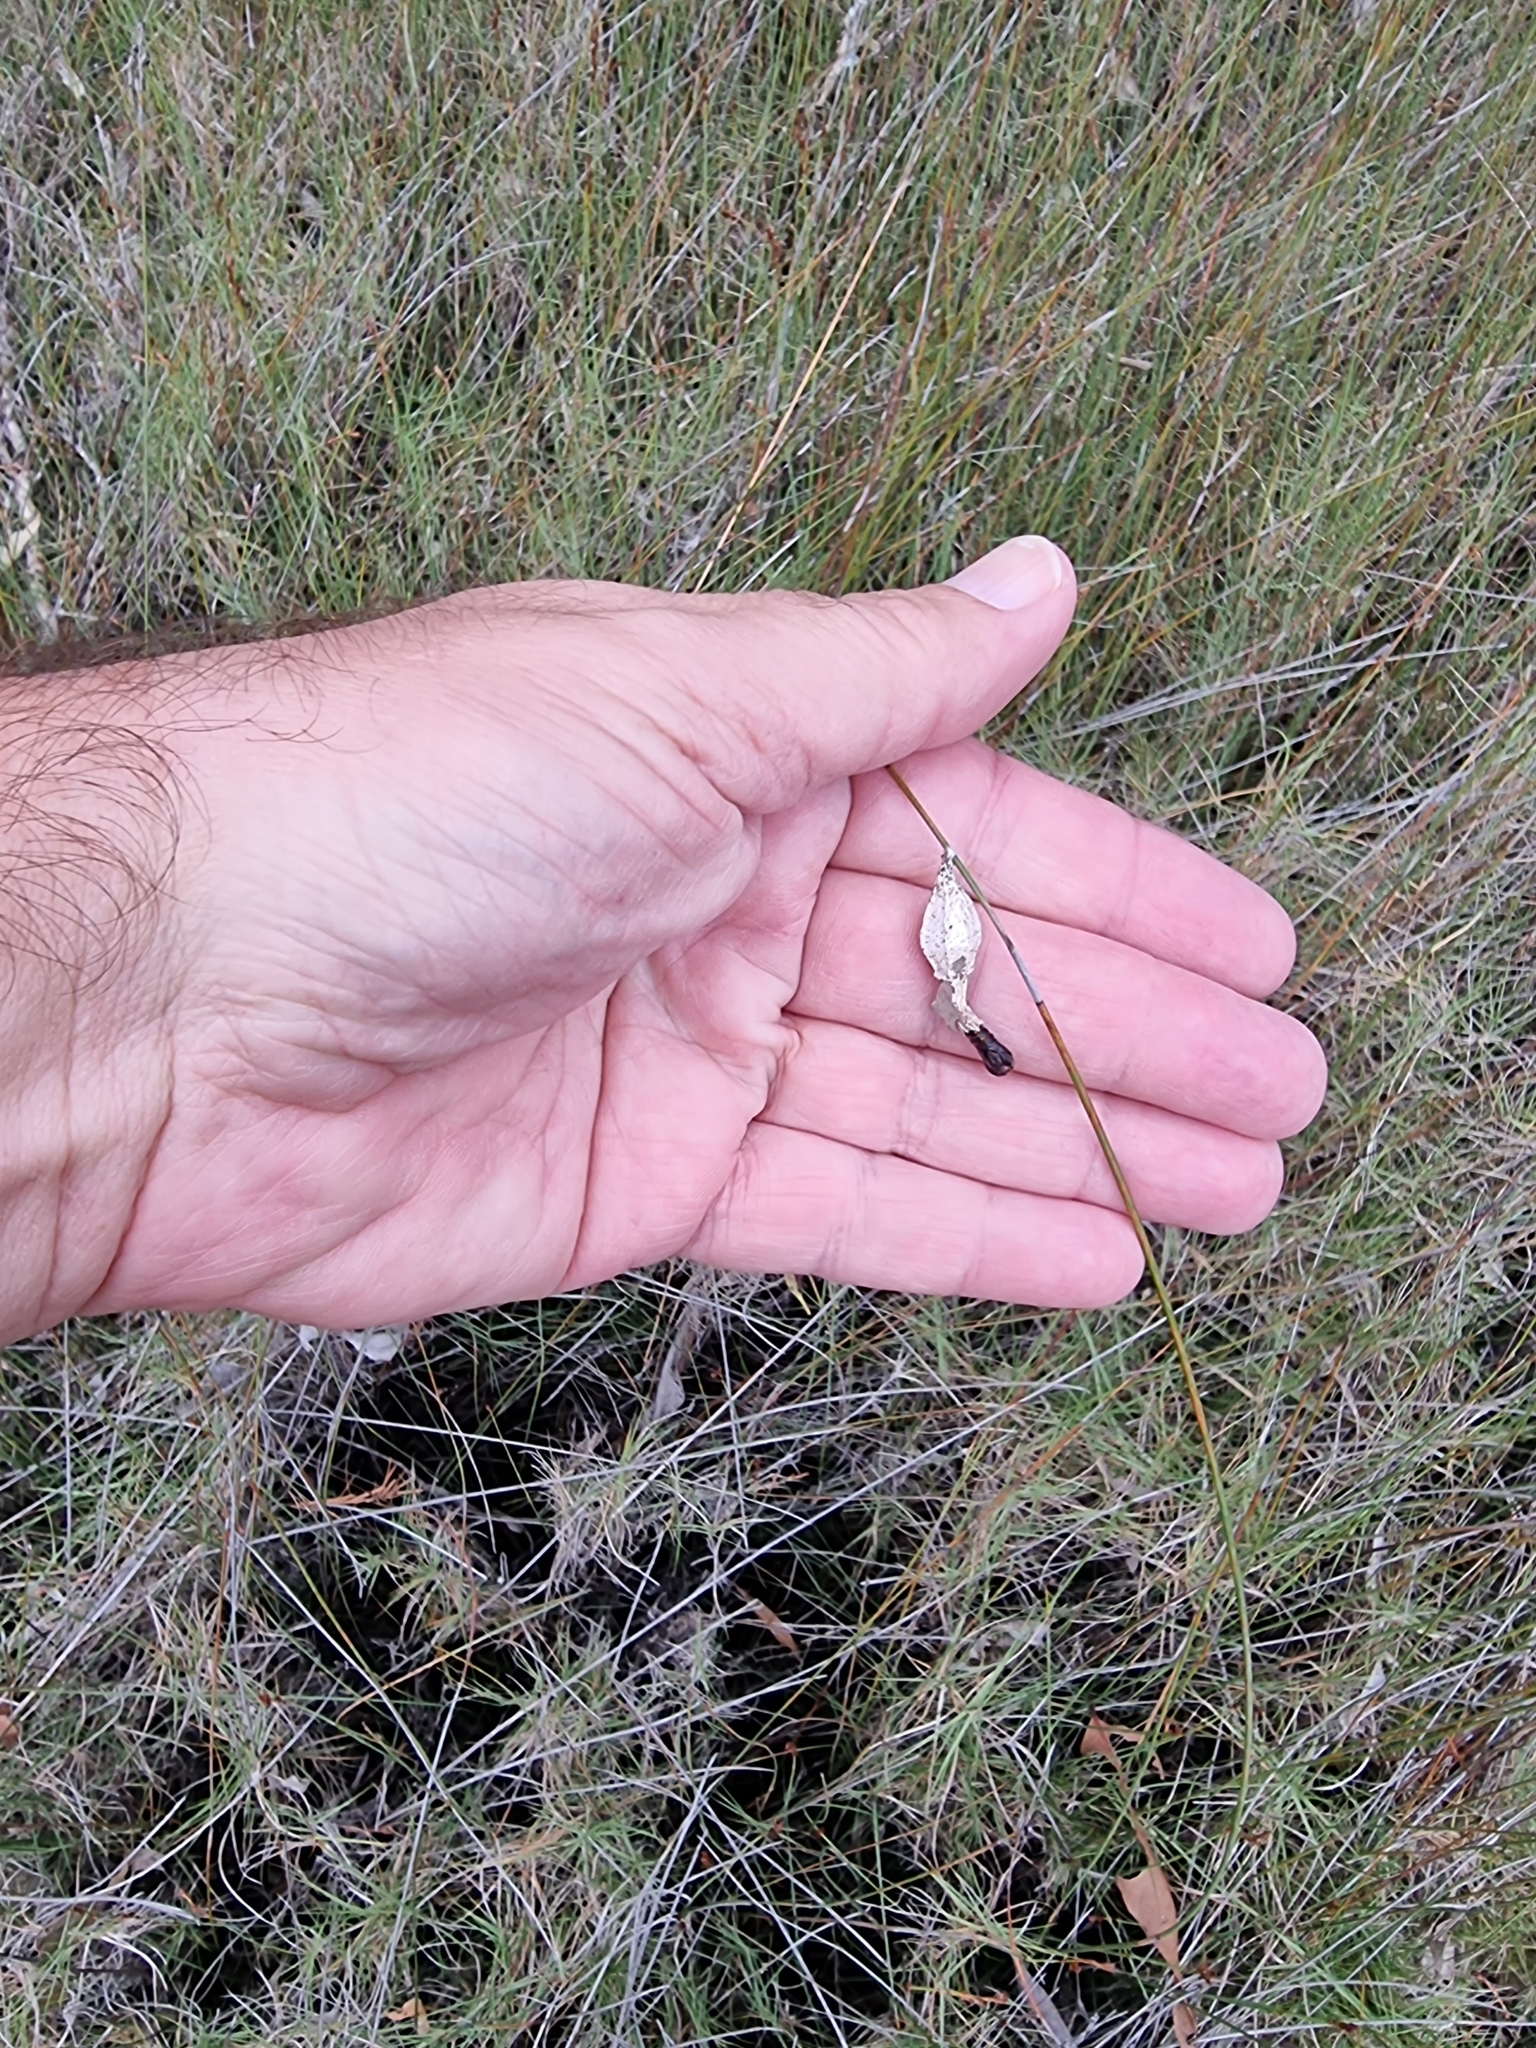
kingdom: Animalia
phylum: Arthropoda
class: Insecta
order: Lepidoptera
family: Psychidae
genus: Hyalarcta
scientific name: Hyalarcta nigrescens
